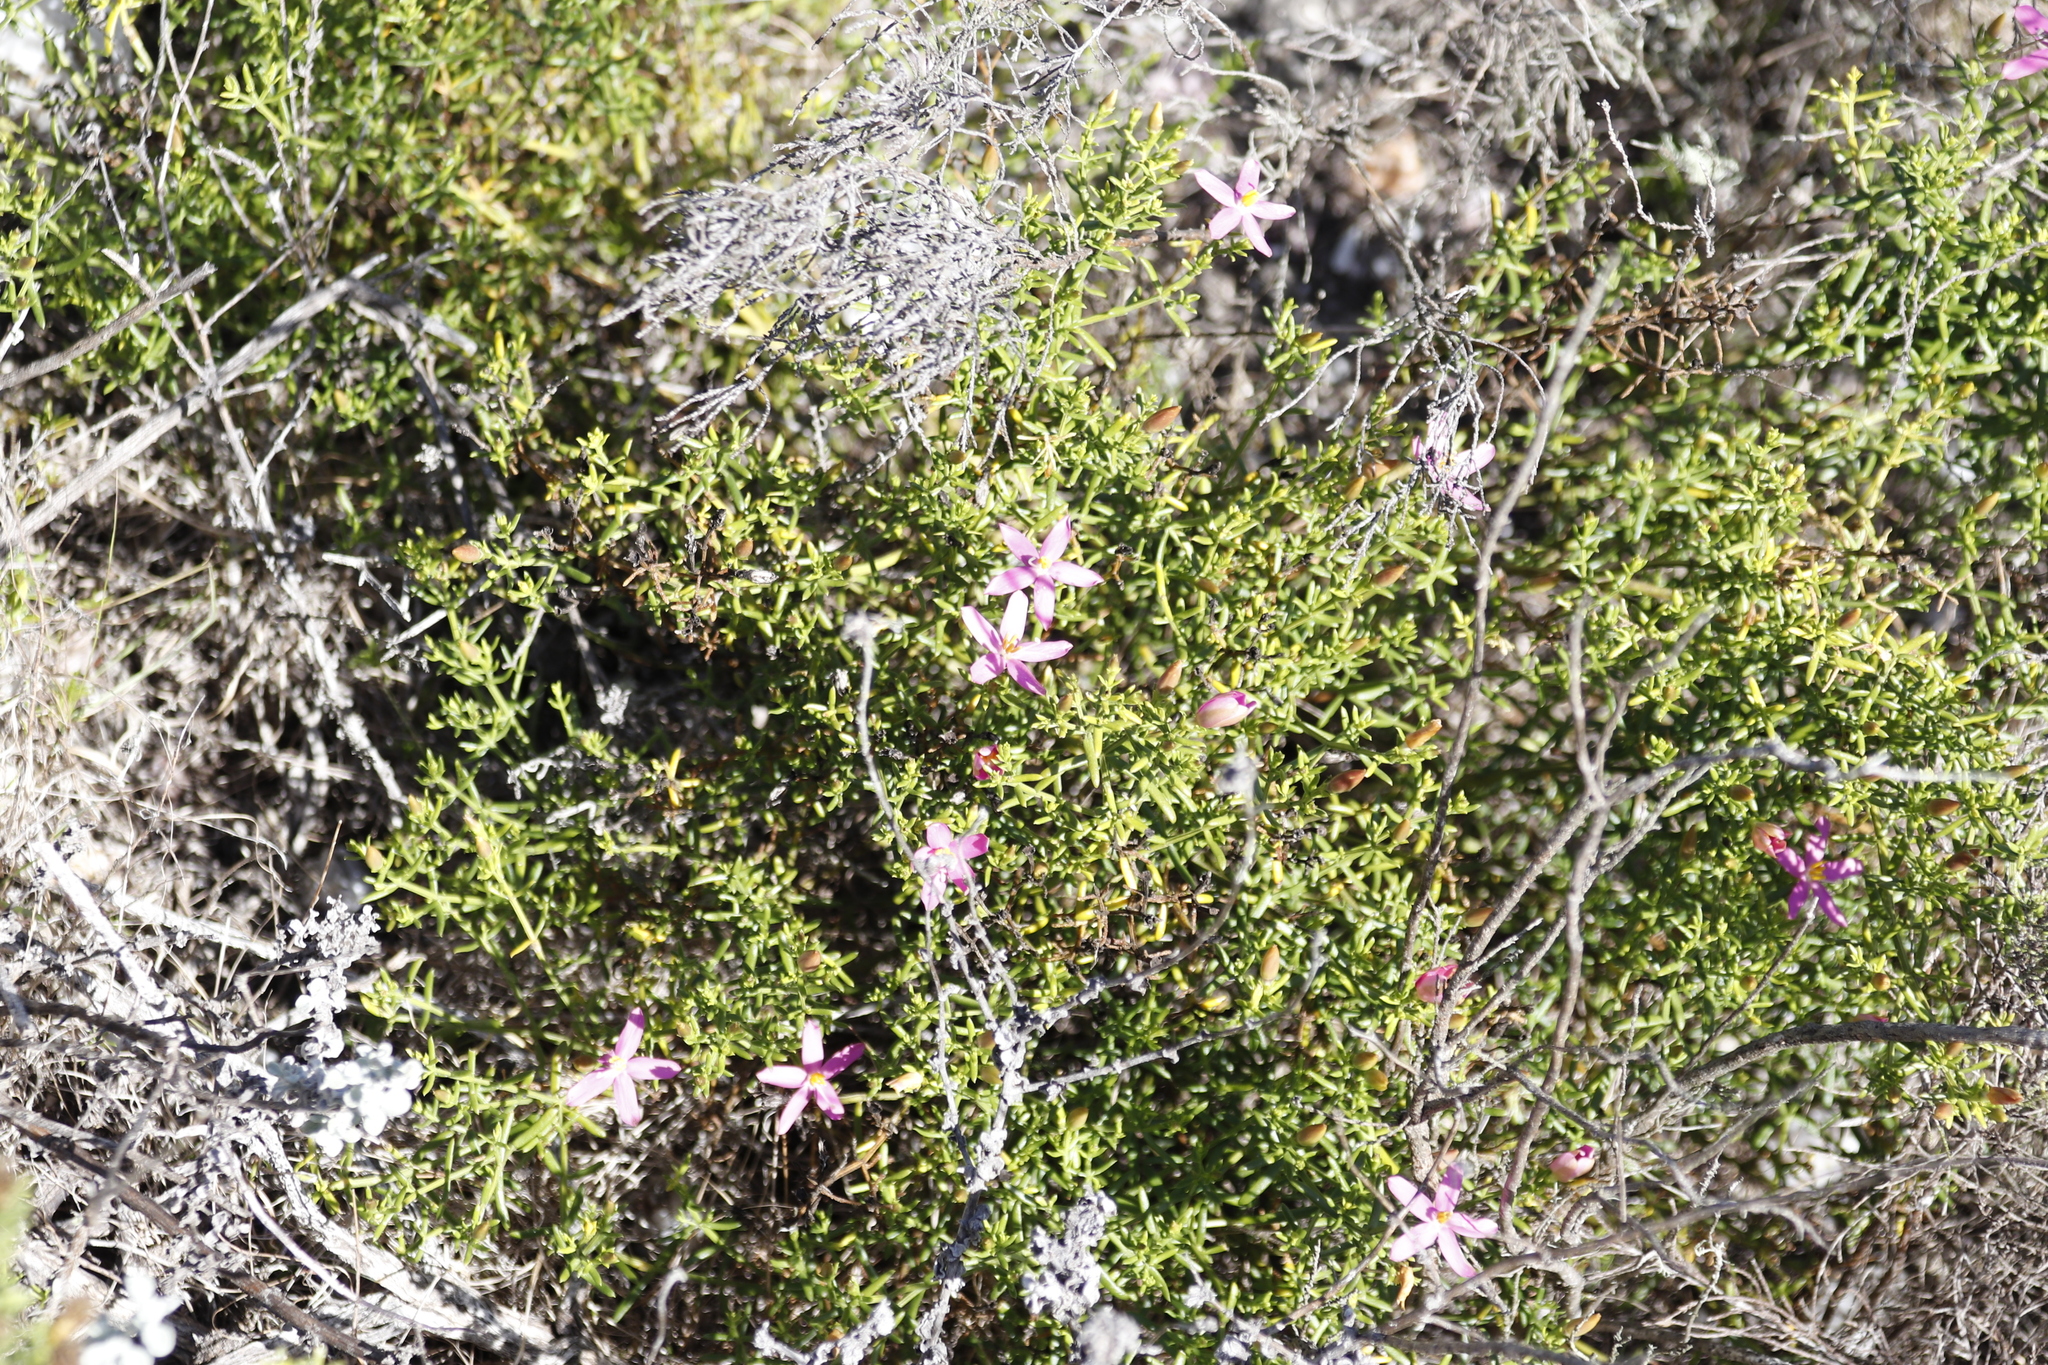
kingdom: Plantae
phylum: Tracheophyta
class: Magnoliopsida
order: Gentianales
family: Gentianaceae
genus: Chironia
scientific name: Chironia baccifera
